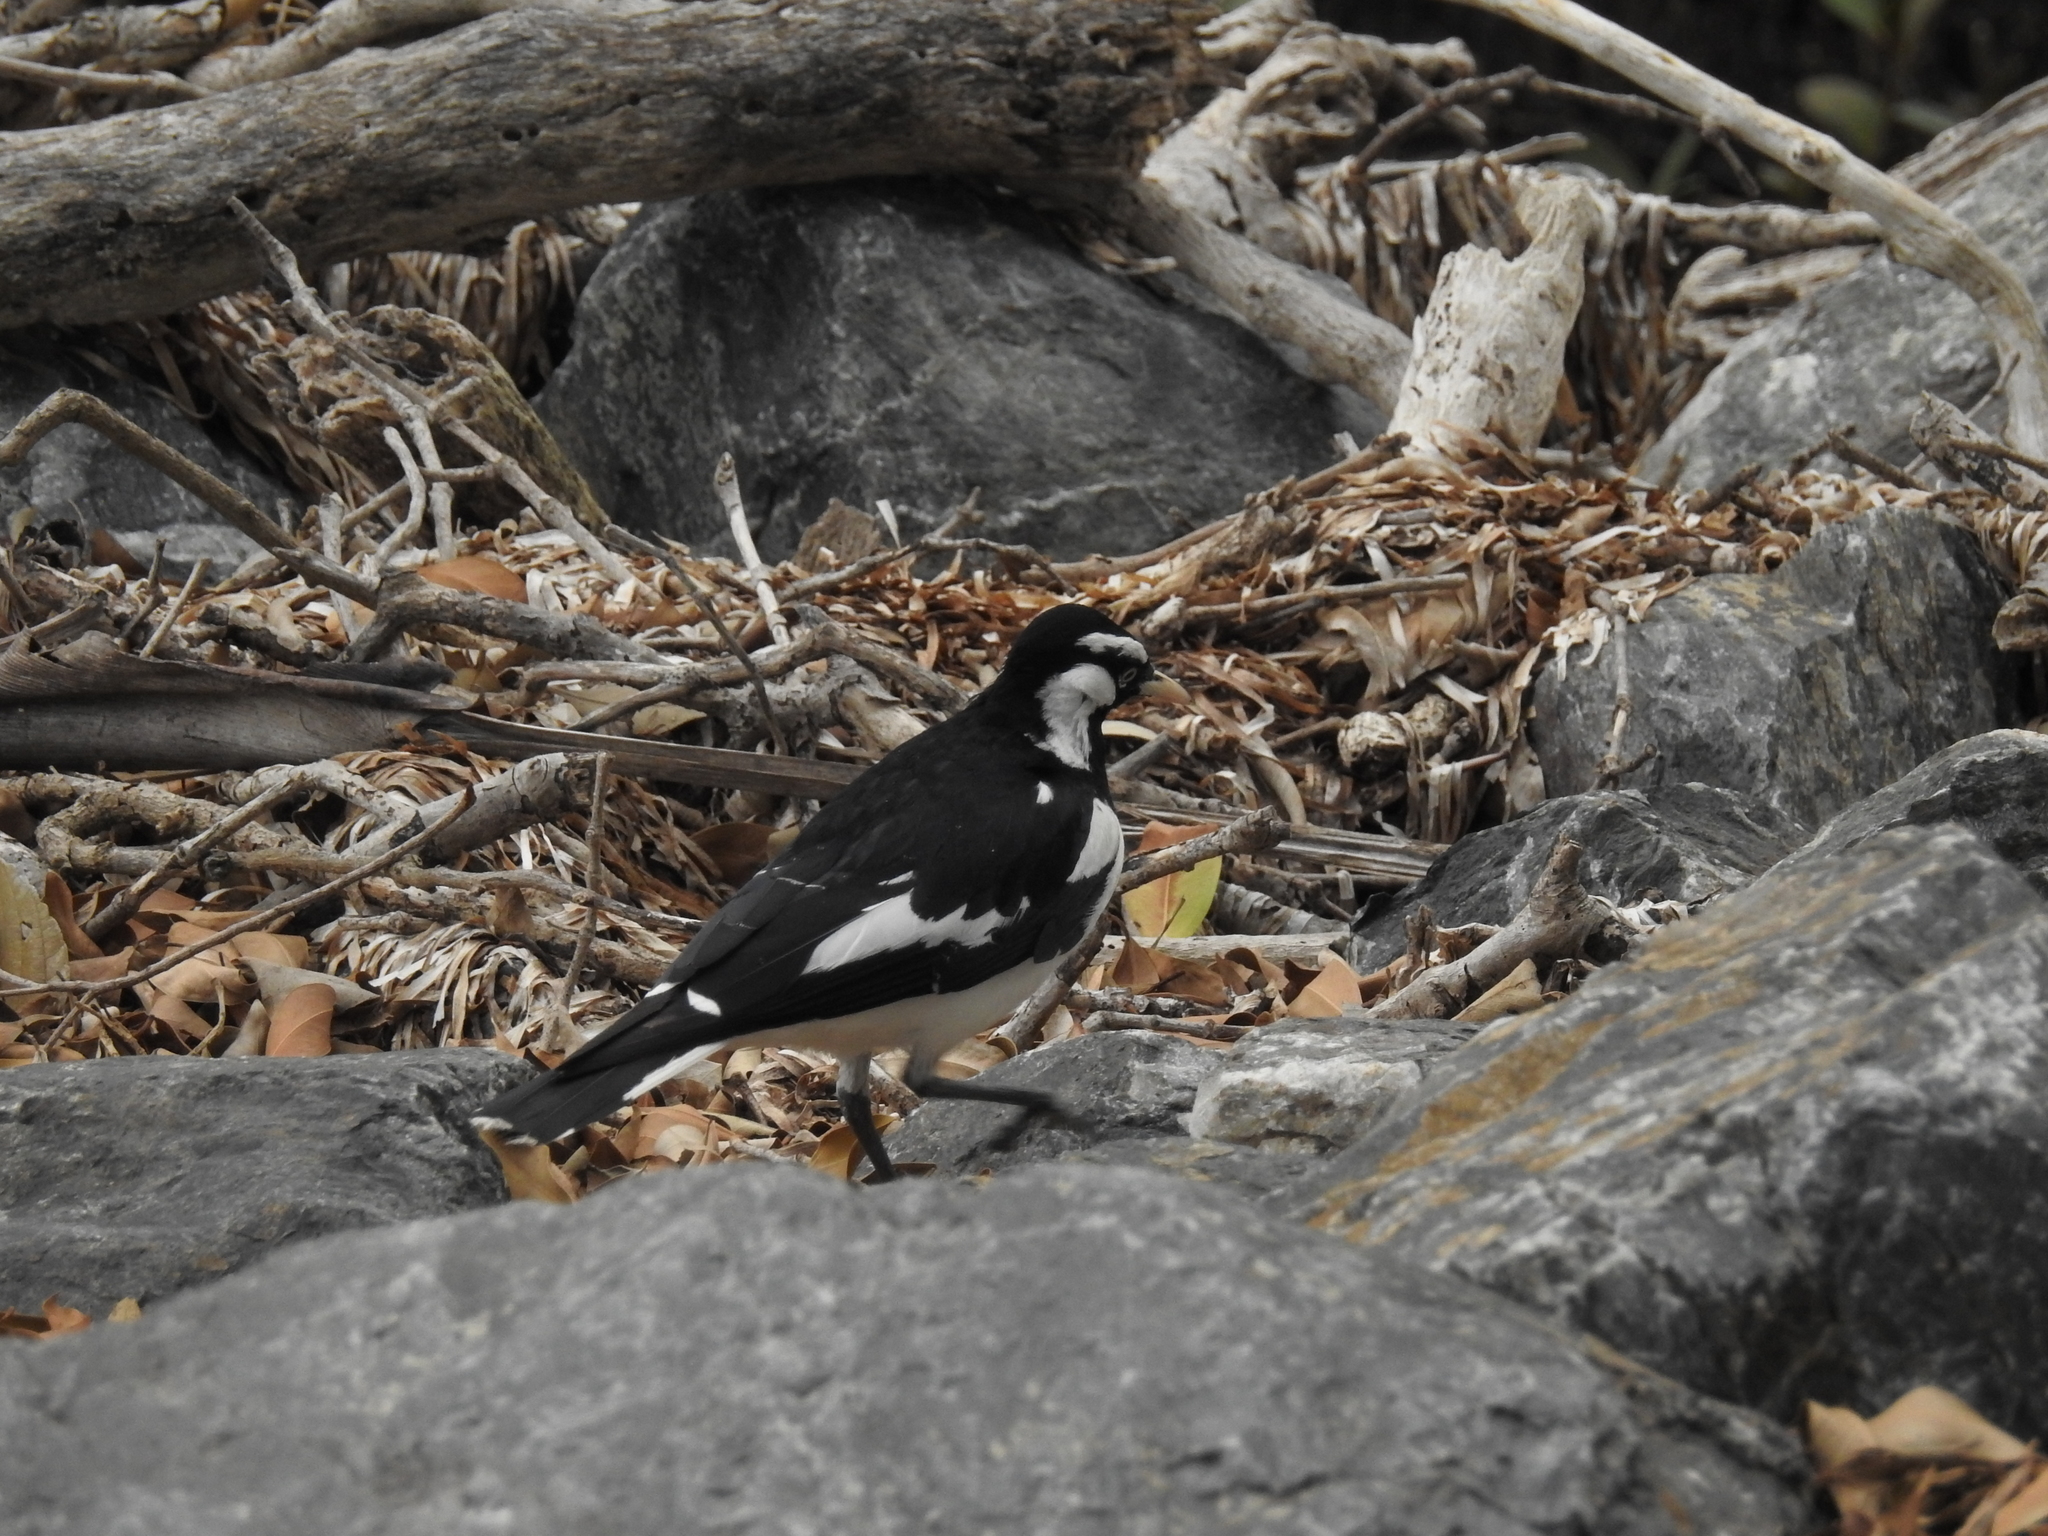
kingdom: Animalia
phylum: Chordata
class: Aves
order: Passeriformes
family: Monarchidae
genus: Grallina
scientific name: Grallina cyanoleuca
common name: Magpie-lark
